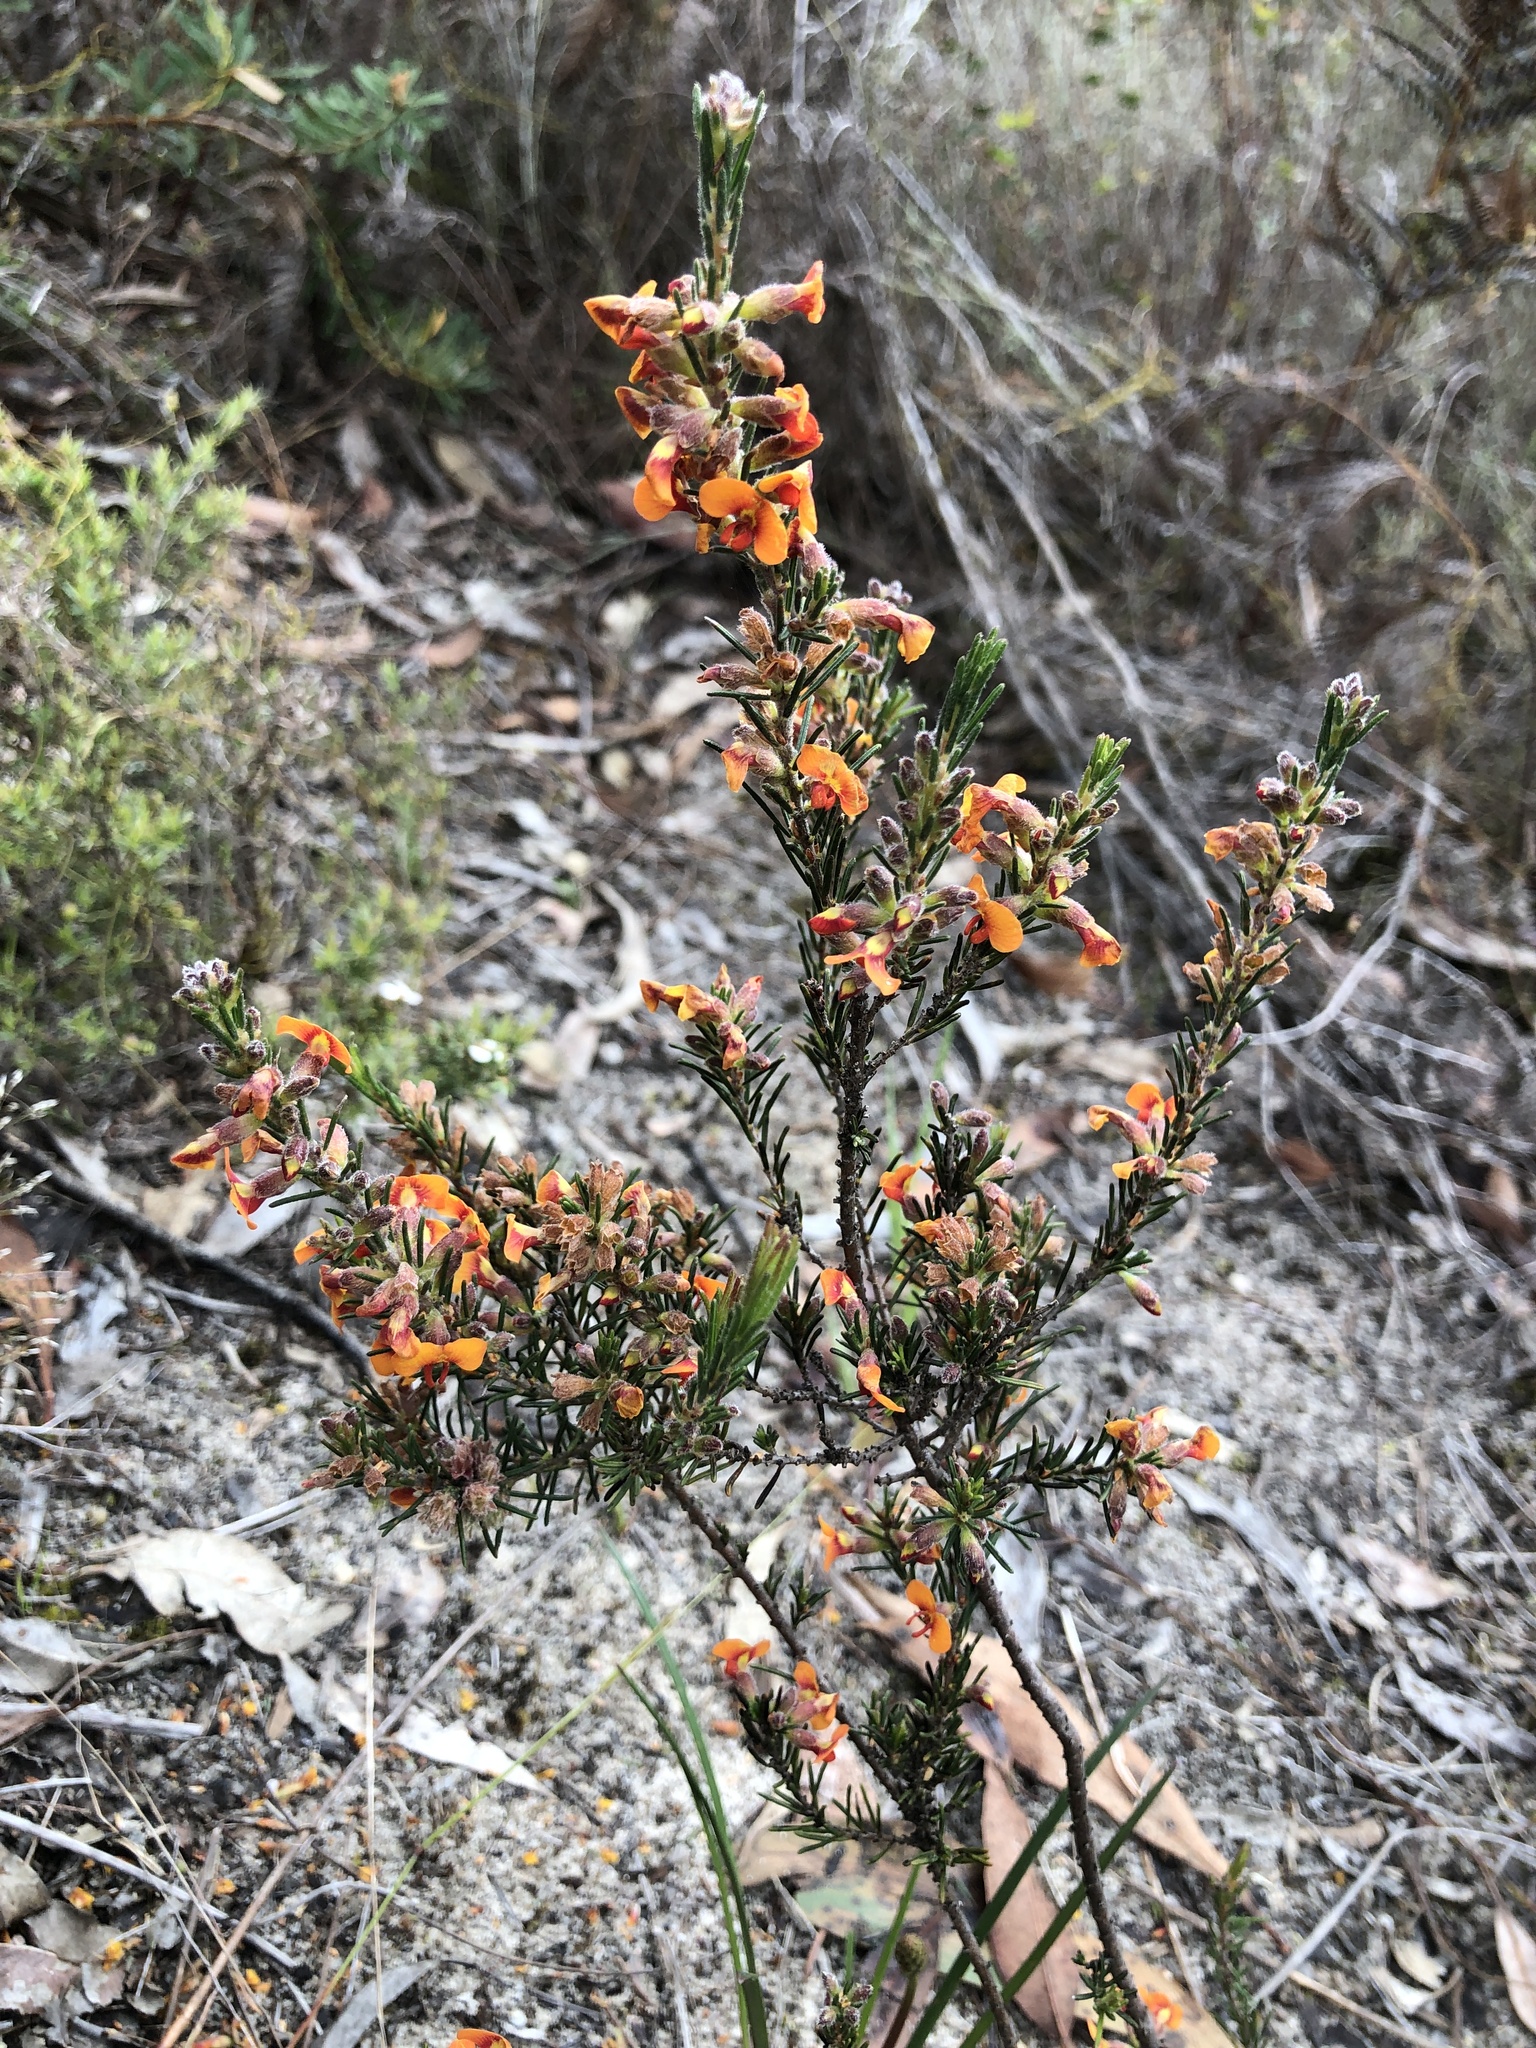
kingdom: Plantae
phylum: Tracheophyta
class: Magnoliopsida
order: Fabales
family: Fabaceae
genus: Dillwynia
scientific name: Dillwynia sericea
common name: Showy parrot-pea
